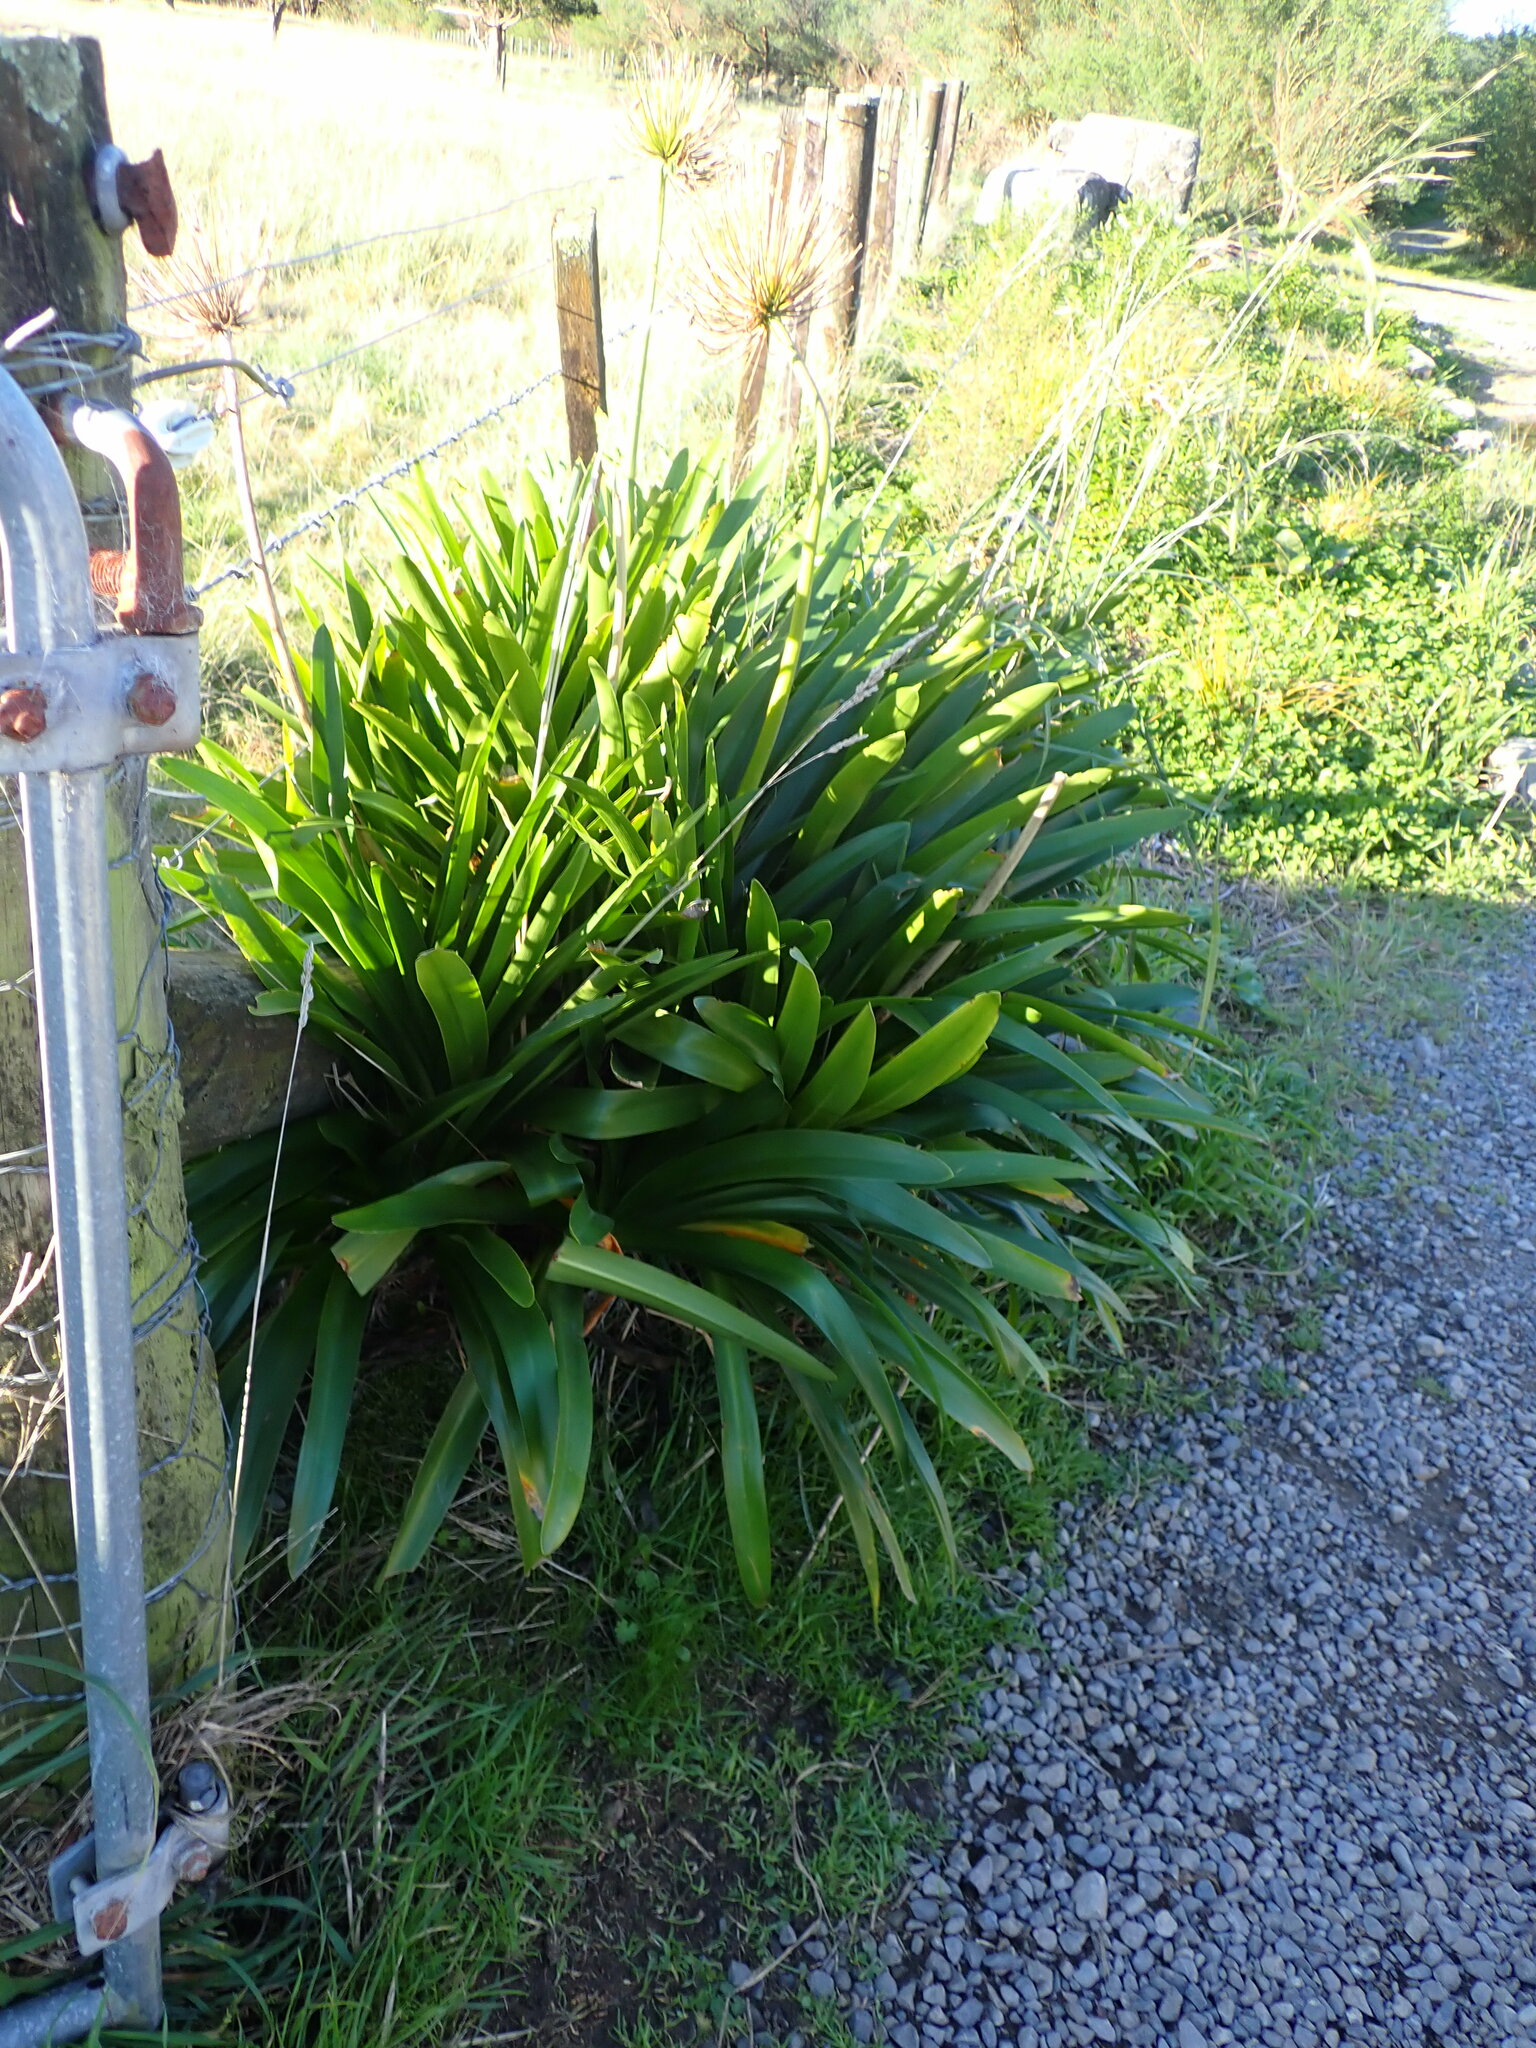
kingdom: Plantae
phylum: Tracheophyta
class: Liliopsida
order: Asparagales
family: Amaryllidaceae
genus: Agapanthus
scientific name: Agapanthus praecox
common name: African-lily
